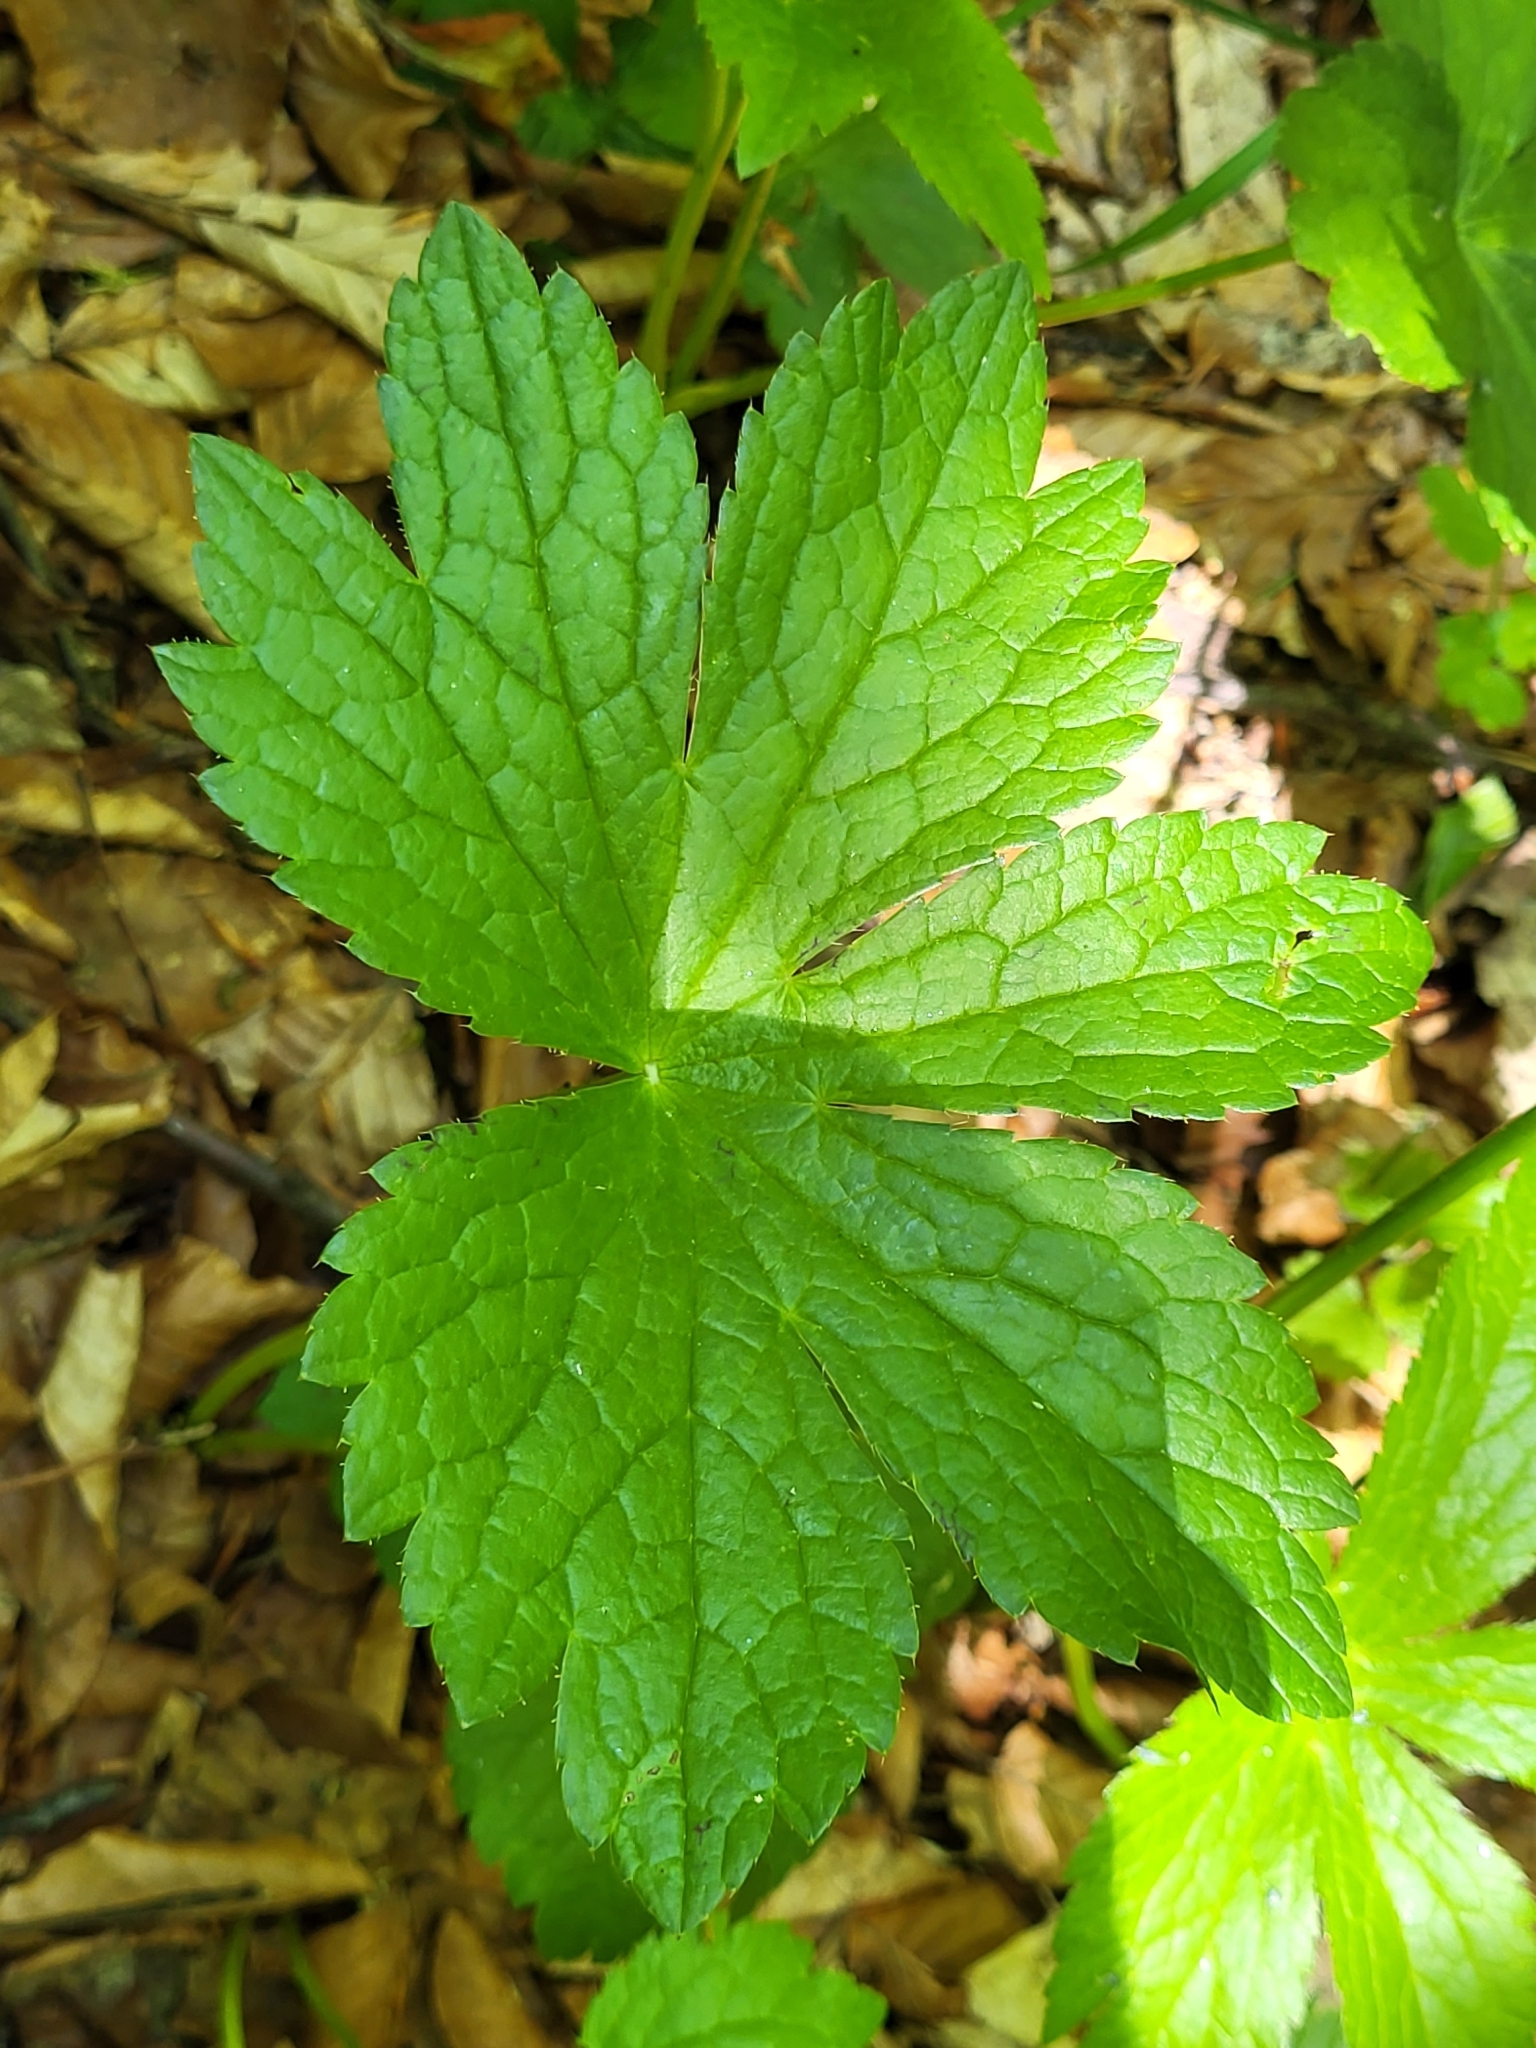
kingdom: Plantae
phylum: Tracheophyta
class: Magnoliopsida
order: Apiales
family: Apiaceae
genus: Astrantia
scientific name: Astrantia major
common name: Greater masterwort
